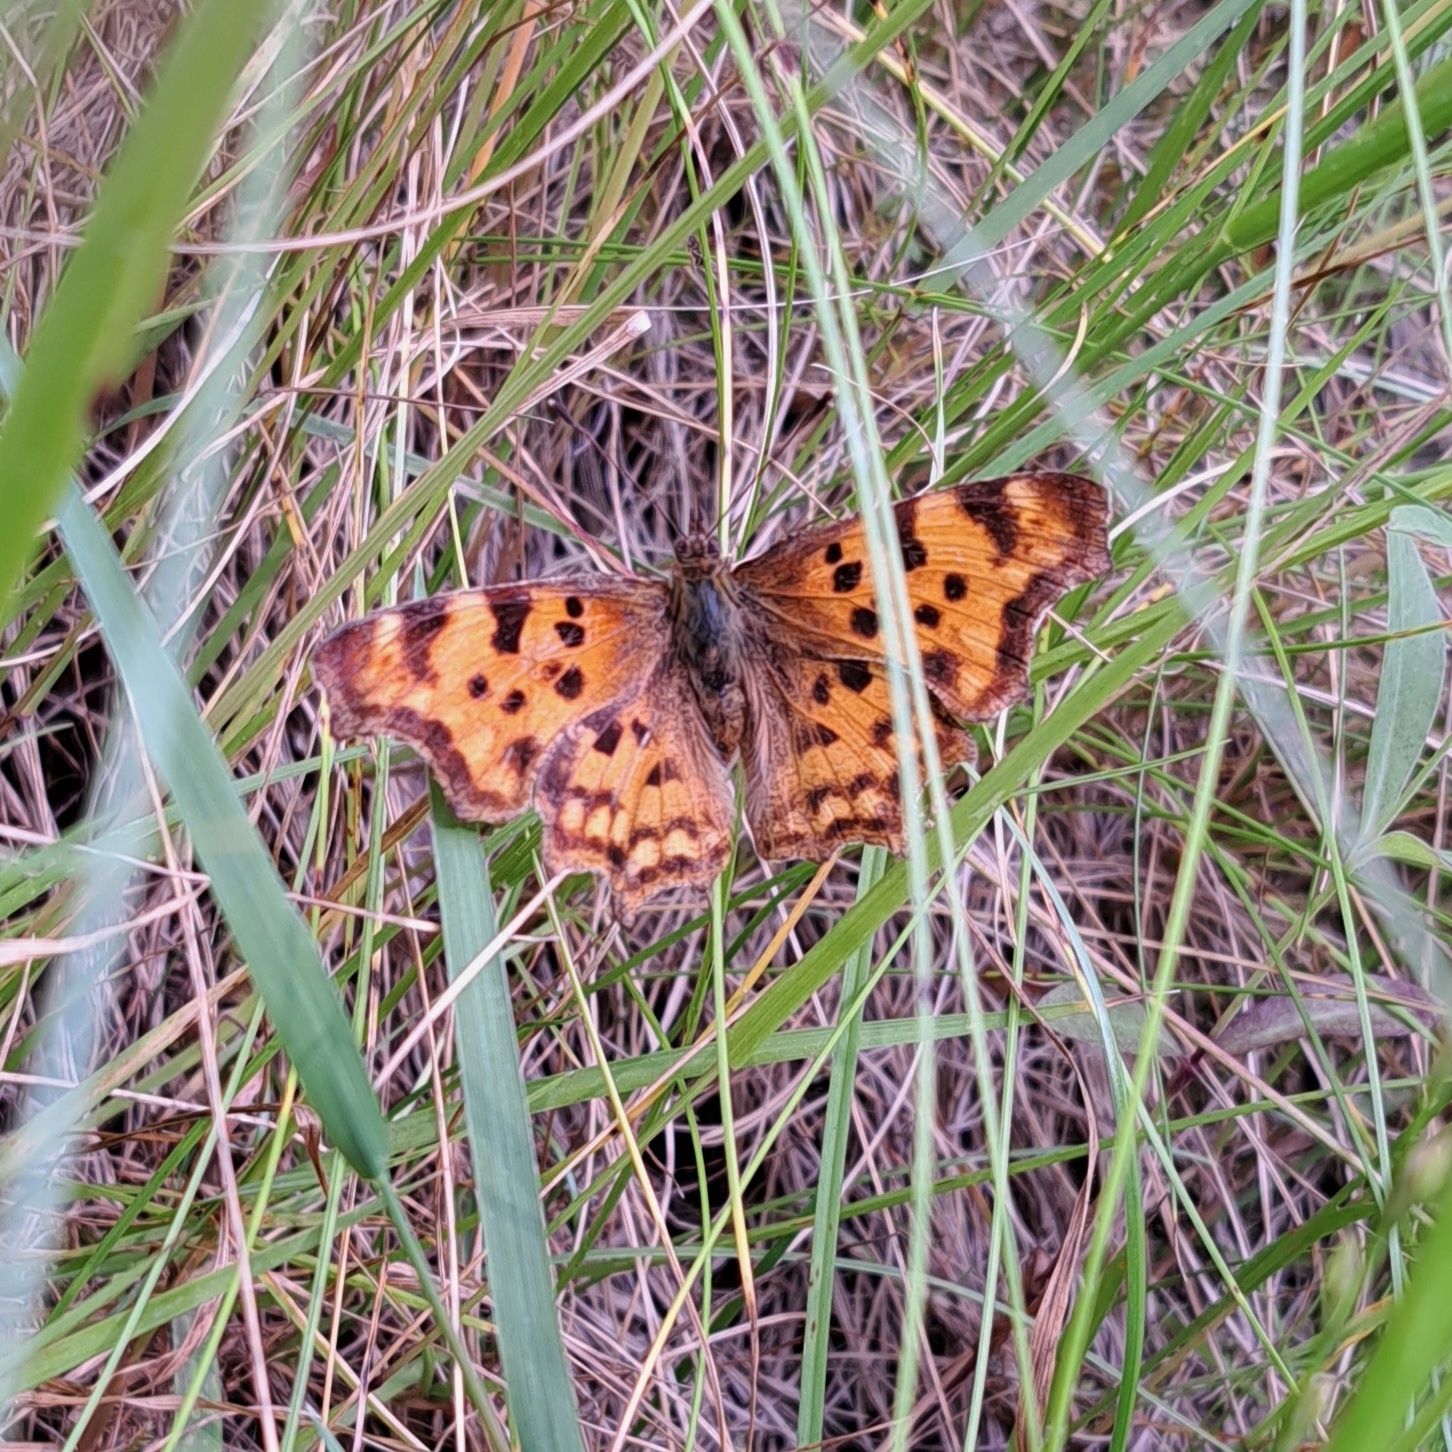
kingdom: Animalia
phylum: Arthropoda
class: Insecta
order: Lepidoptera
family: Nymphalidae
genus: Polygonia
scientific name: Polygonia c-album
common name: Comma
